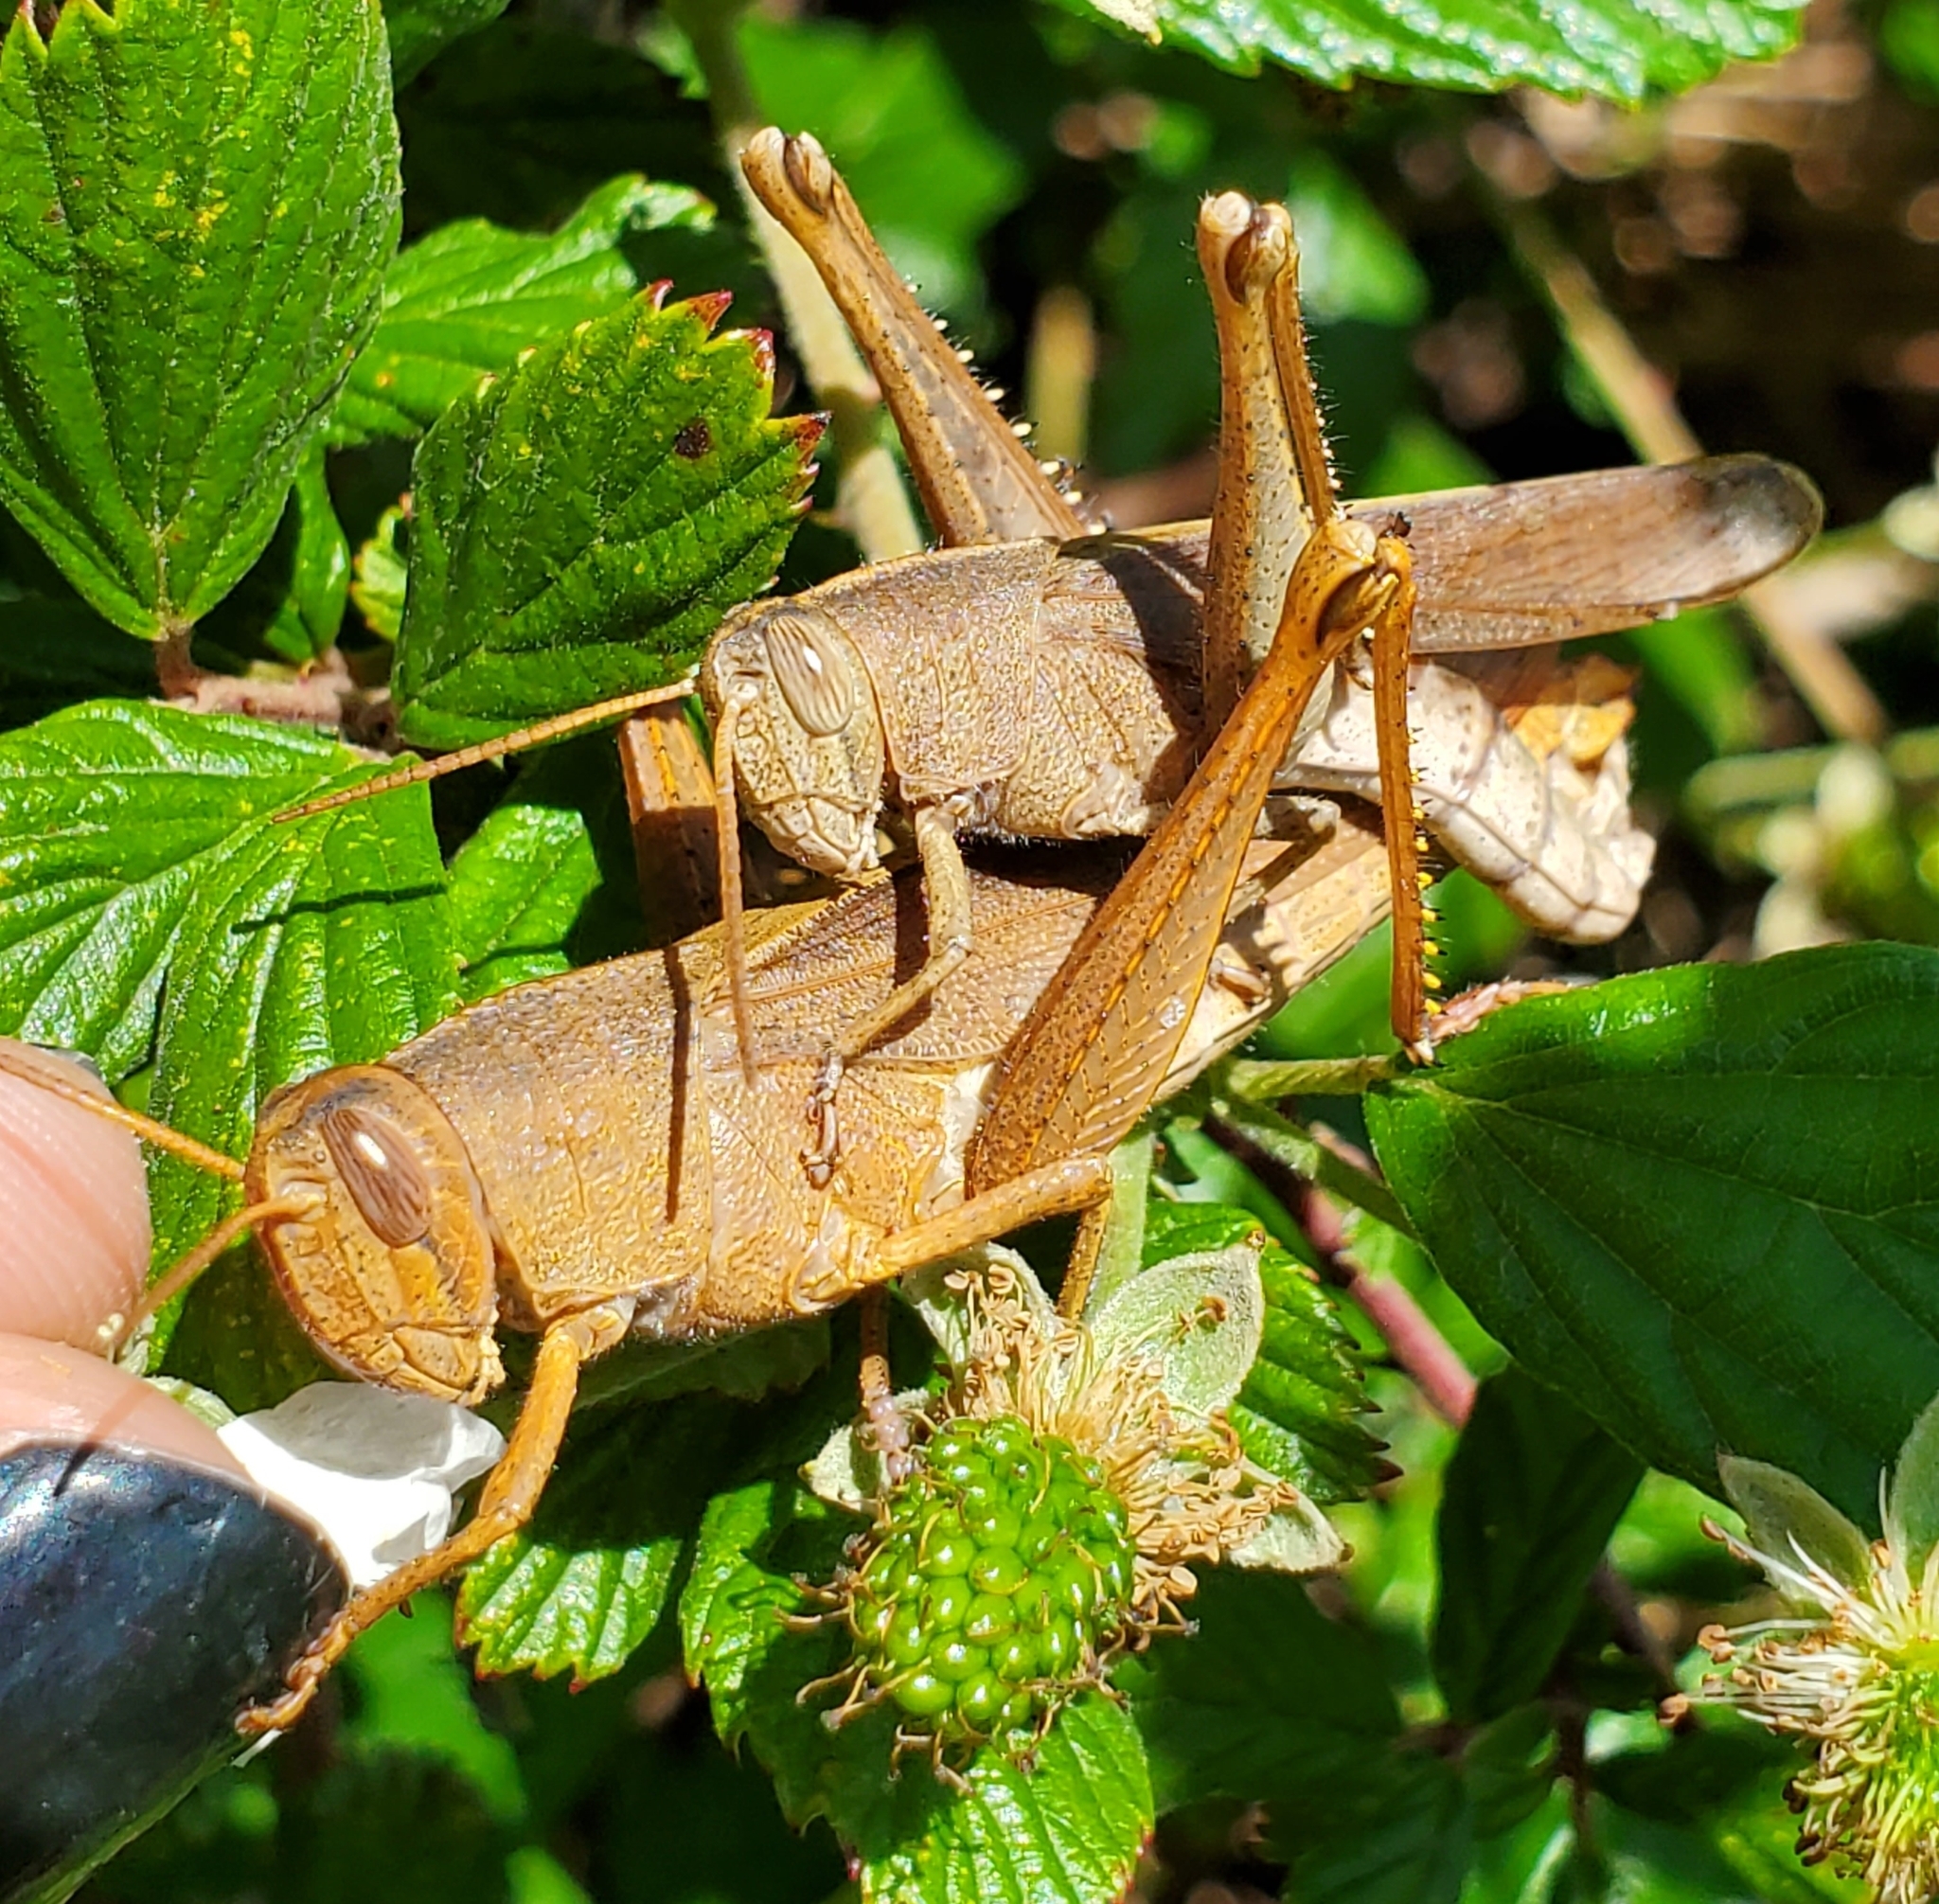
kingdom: Animalia
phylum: Arthropoda
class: Insecta
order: Orthoptera
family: Acrididae
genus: Schistocerca
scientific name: Schistocerca damnifica
